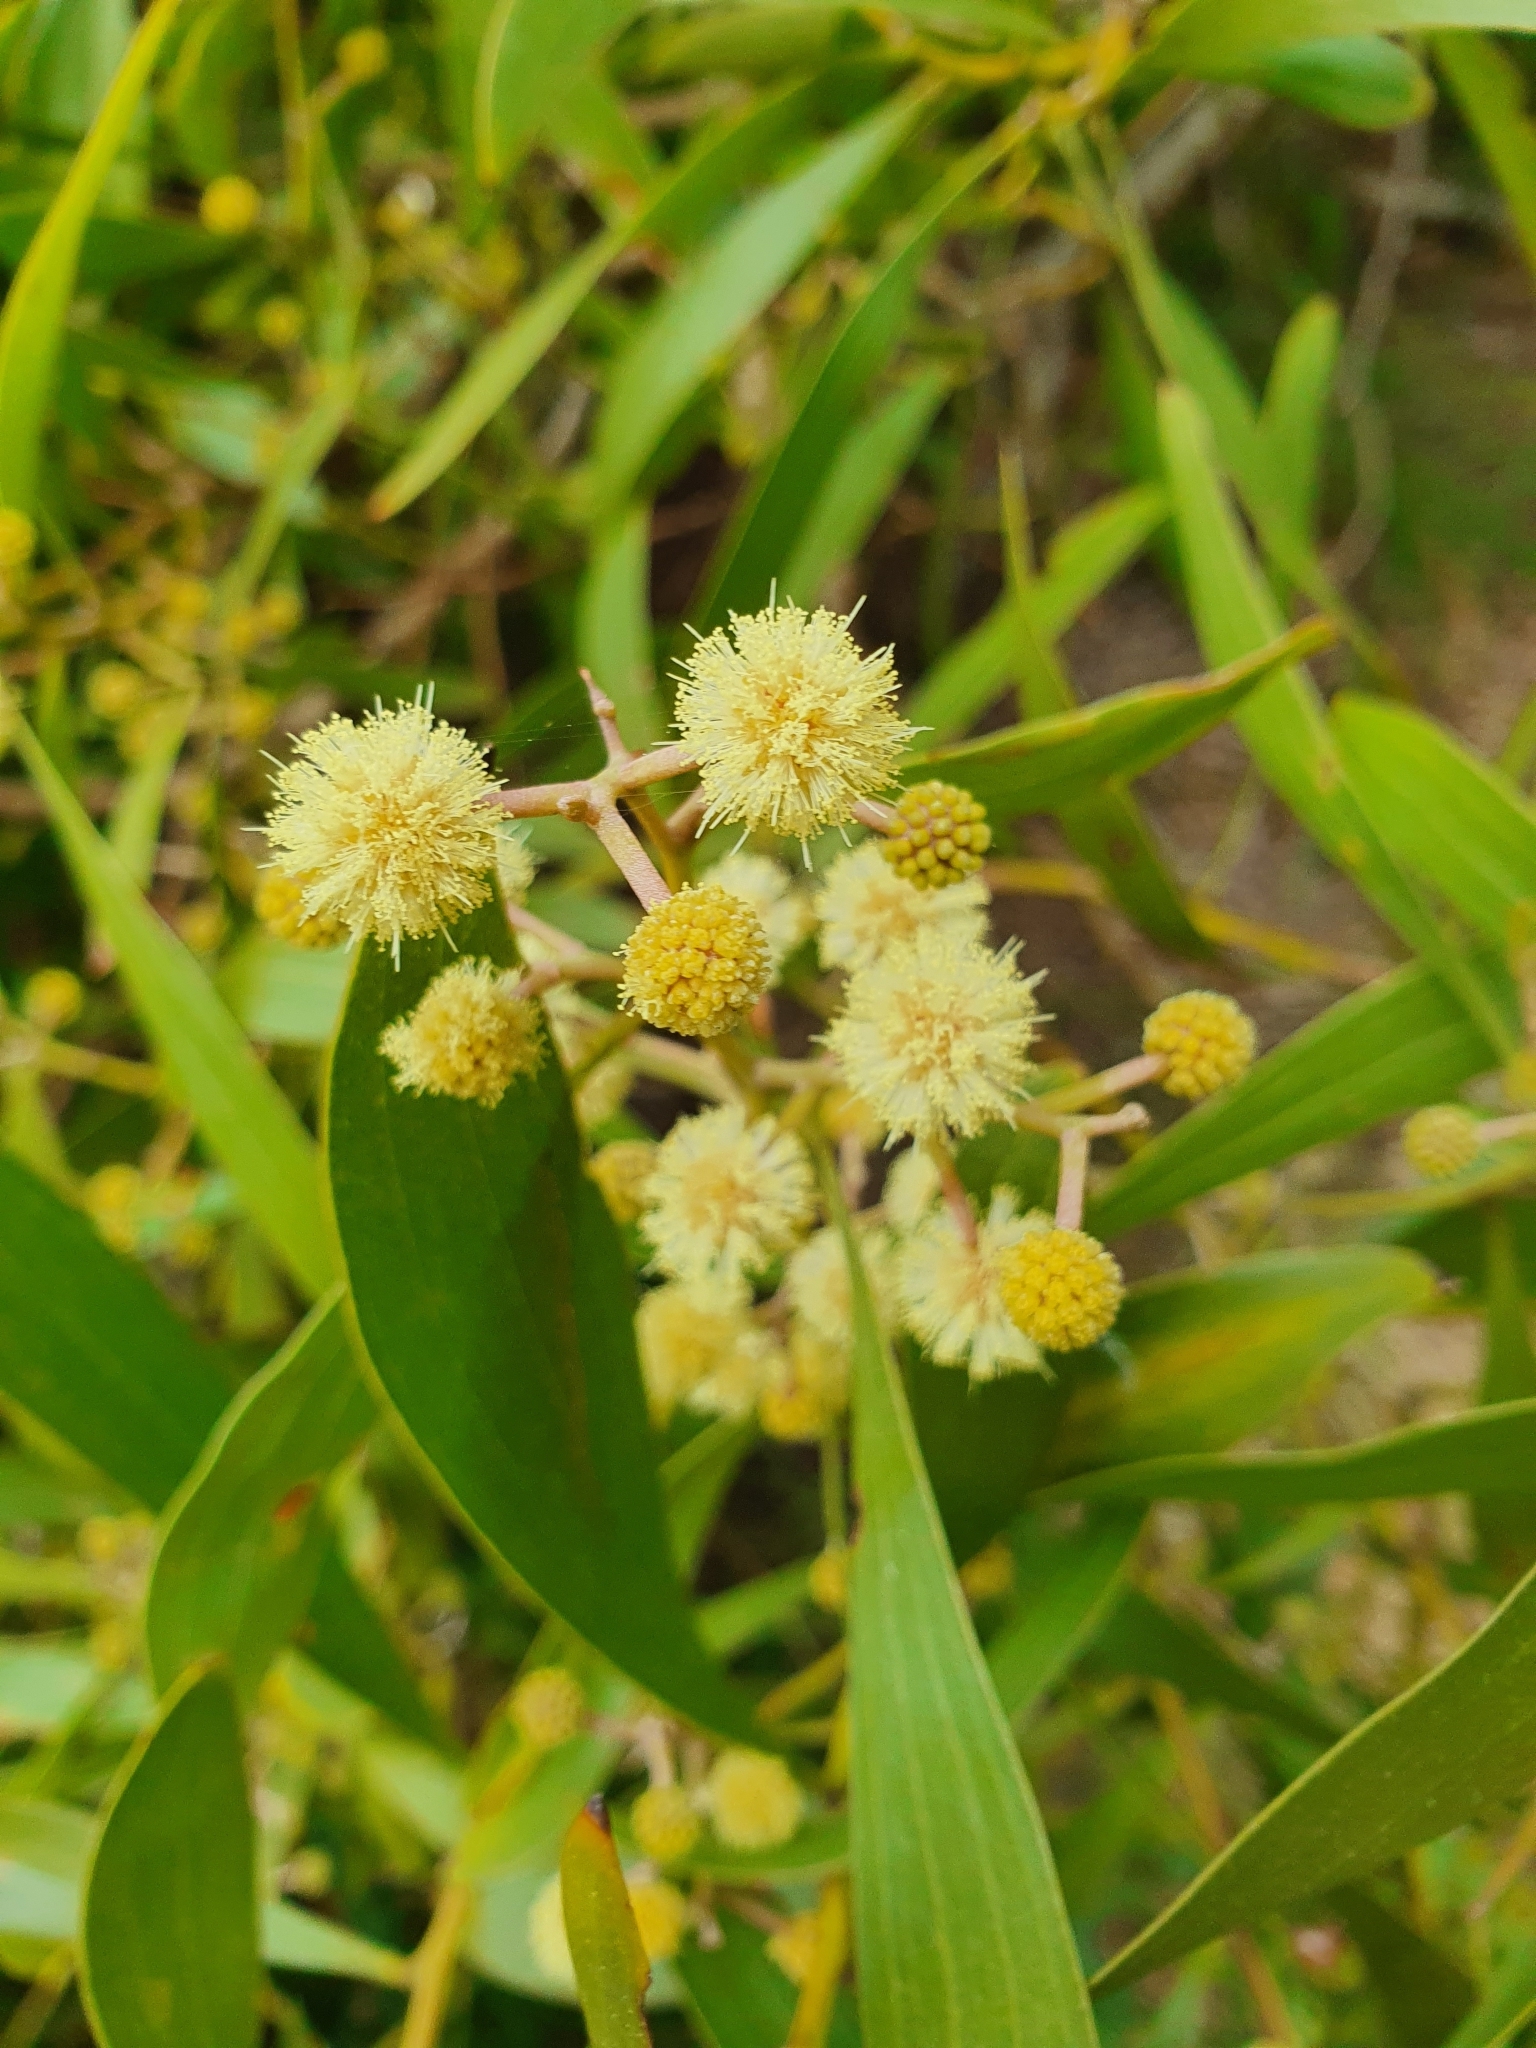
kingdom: Plantae
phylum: Tracheophyta
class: Magnoliopsida
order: Fabales
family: Fabaceae
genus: Acacia
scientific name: Acacia melanoxylon
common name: Blackwood
